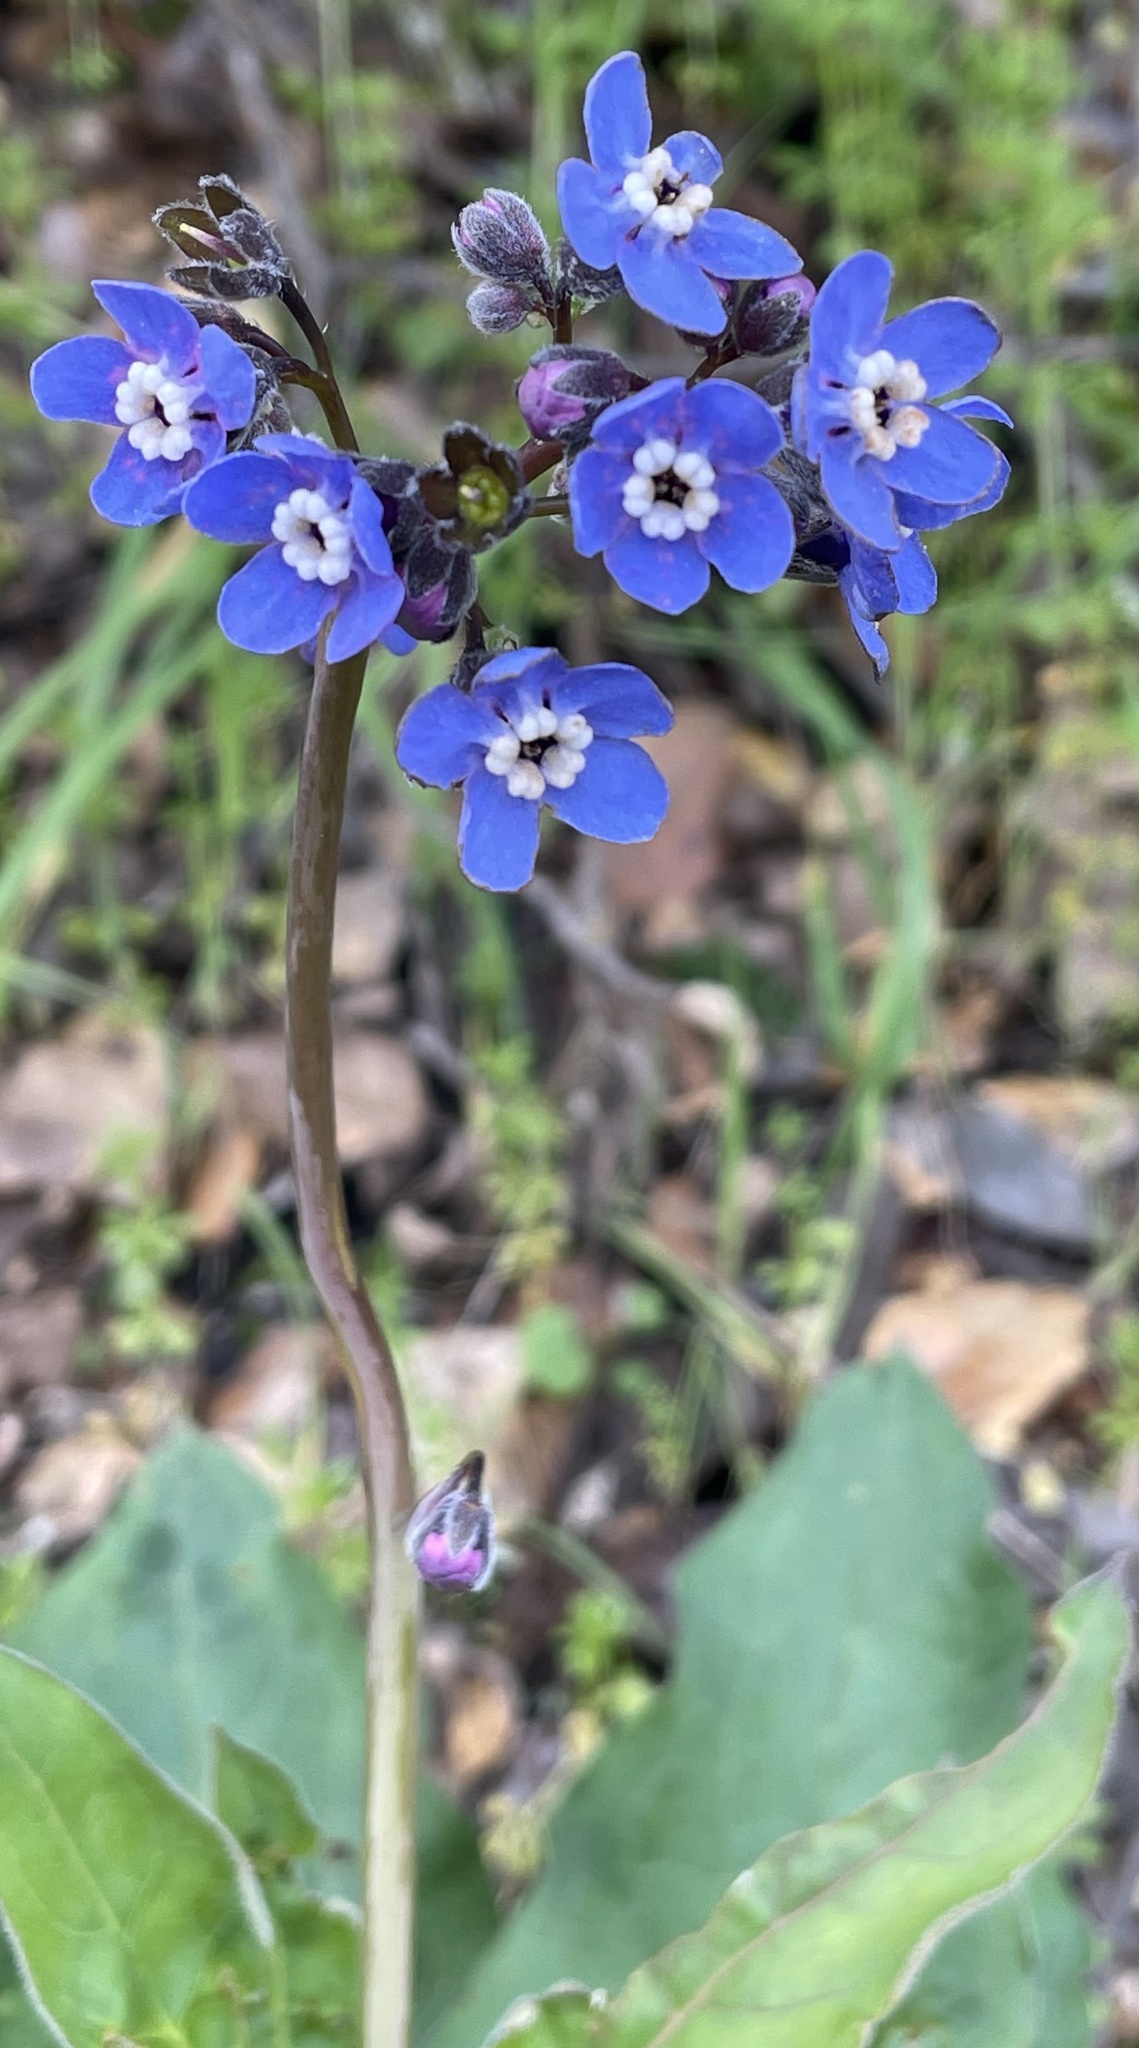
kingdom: Plantae
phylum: Tracheophyta
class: Magnoliopsida
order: Boraginales
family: Boraginaceae
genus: Adelinia
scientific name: Adelinia grande
